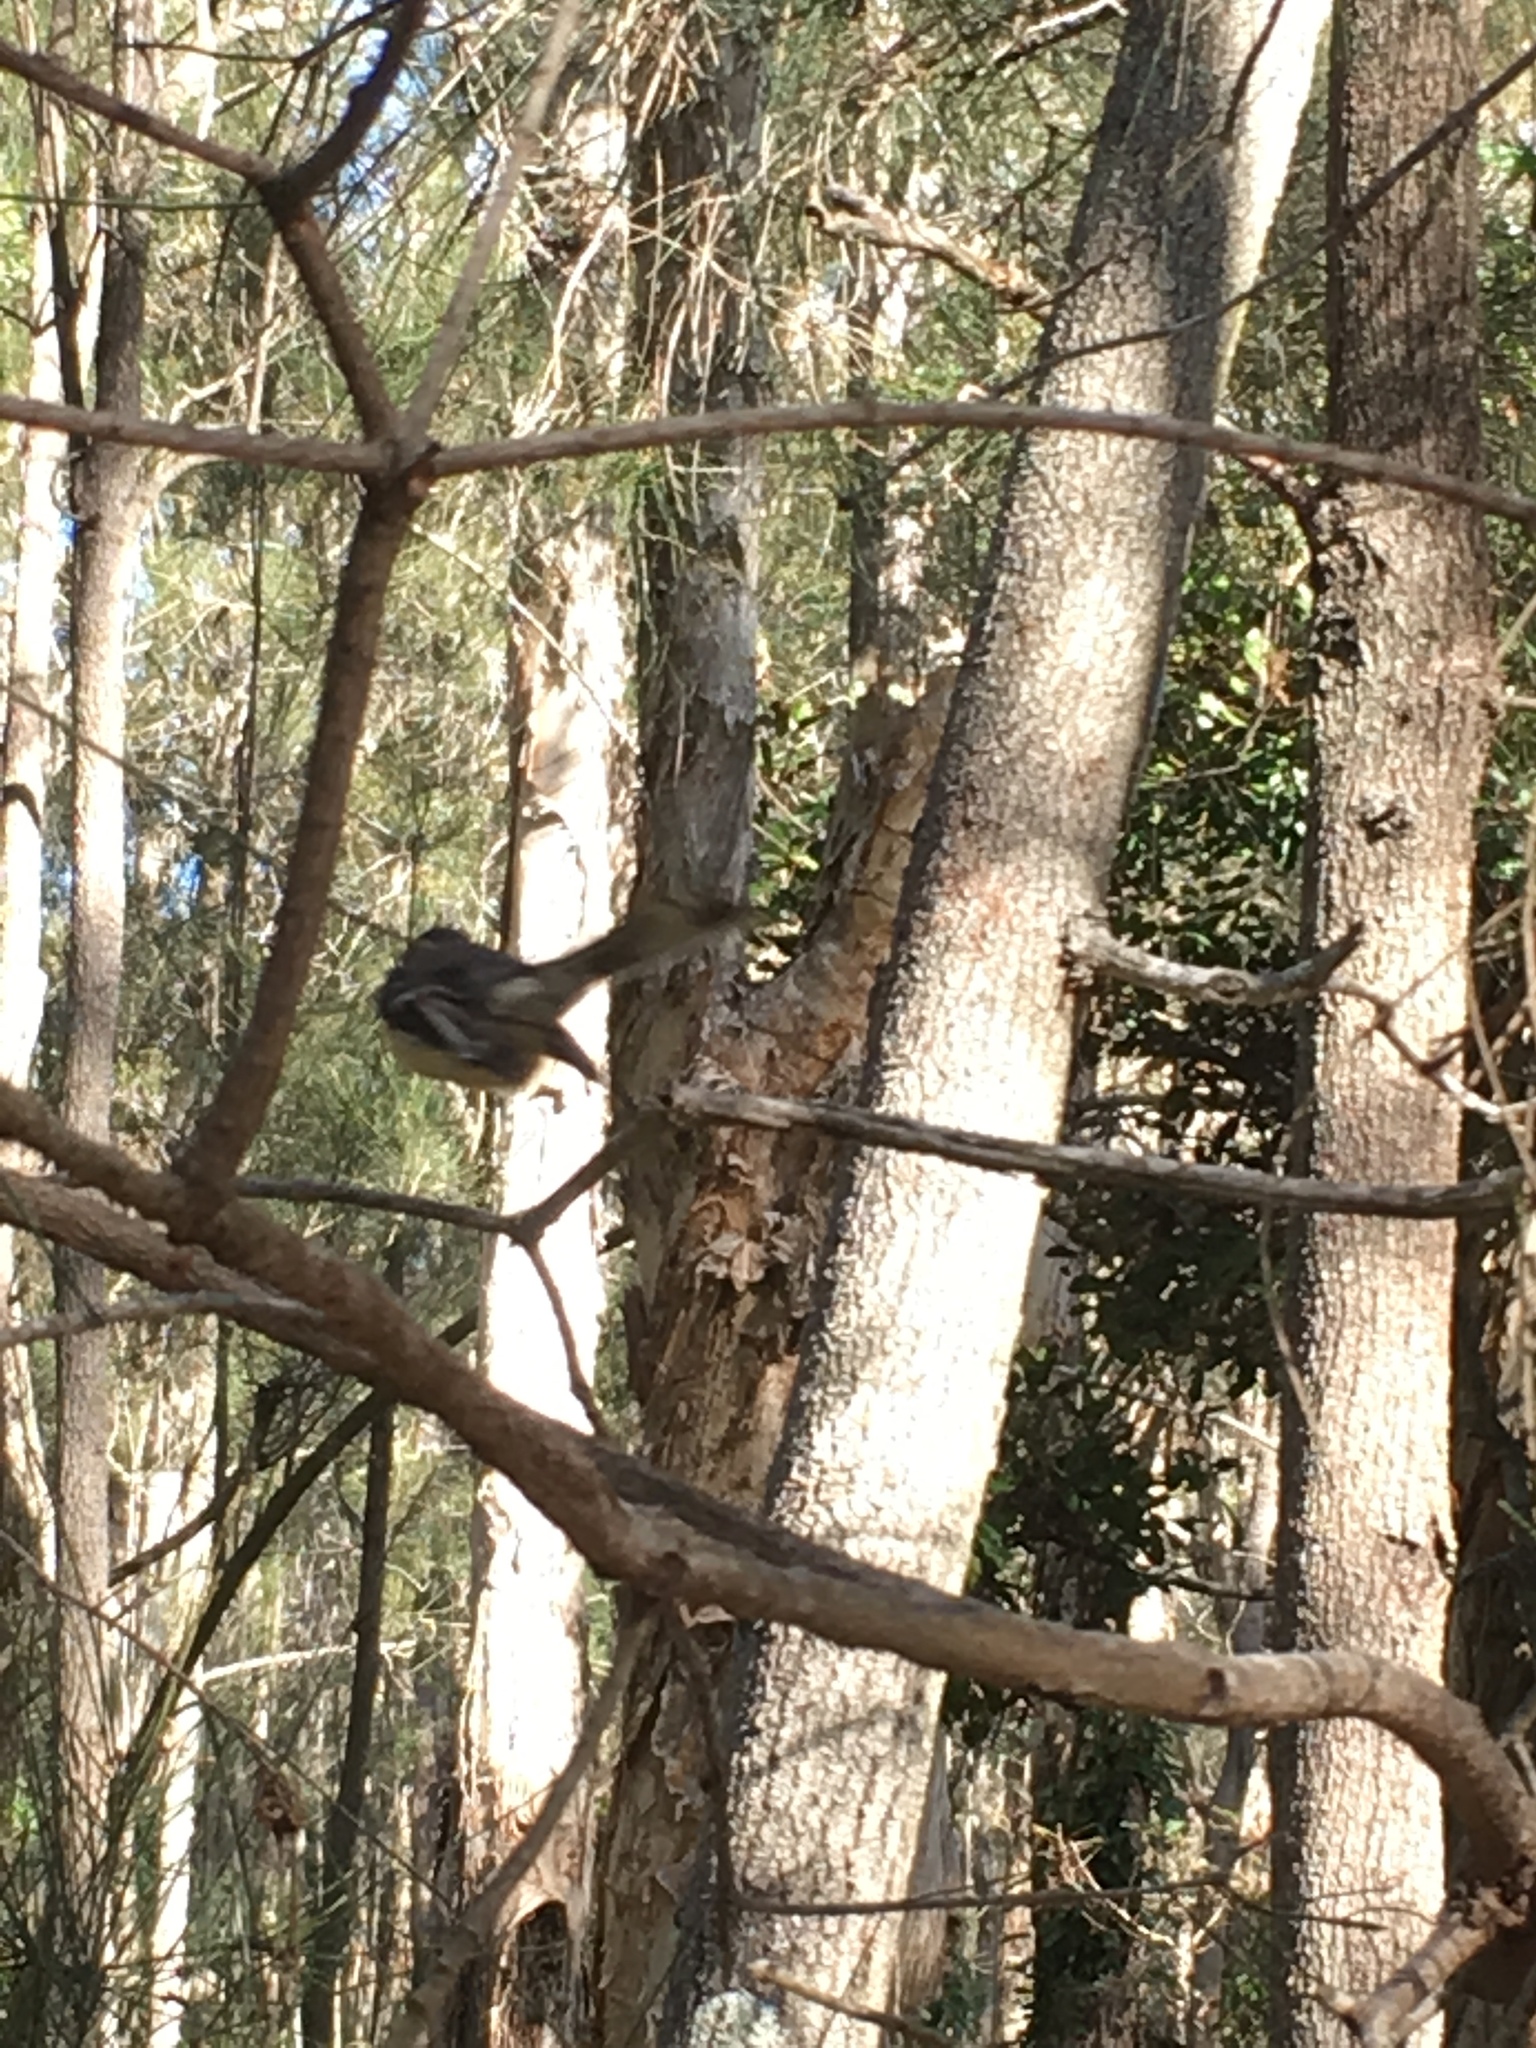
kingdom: Animalia
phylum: Chordata
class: Aves
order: Passeriformes
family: Rhipiduridae
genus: Rhipidura
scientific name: Rhipidura albiscapa
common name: Grey fantail
